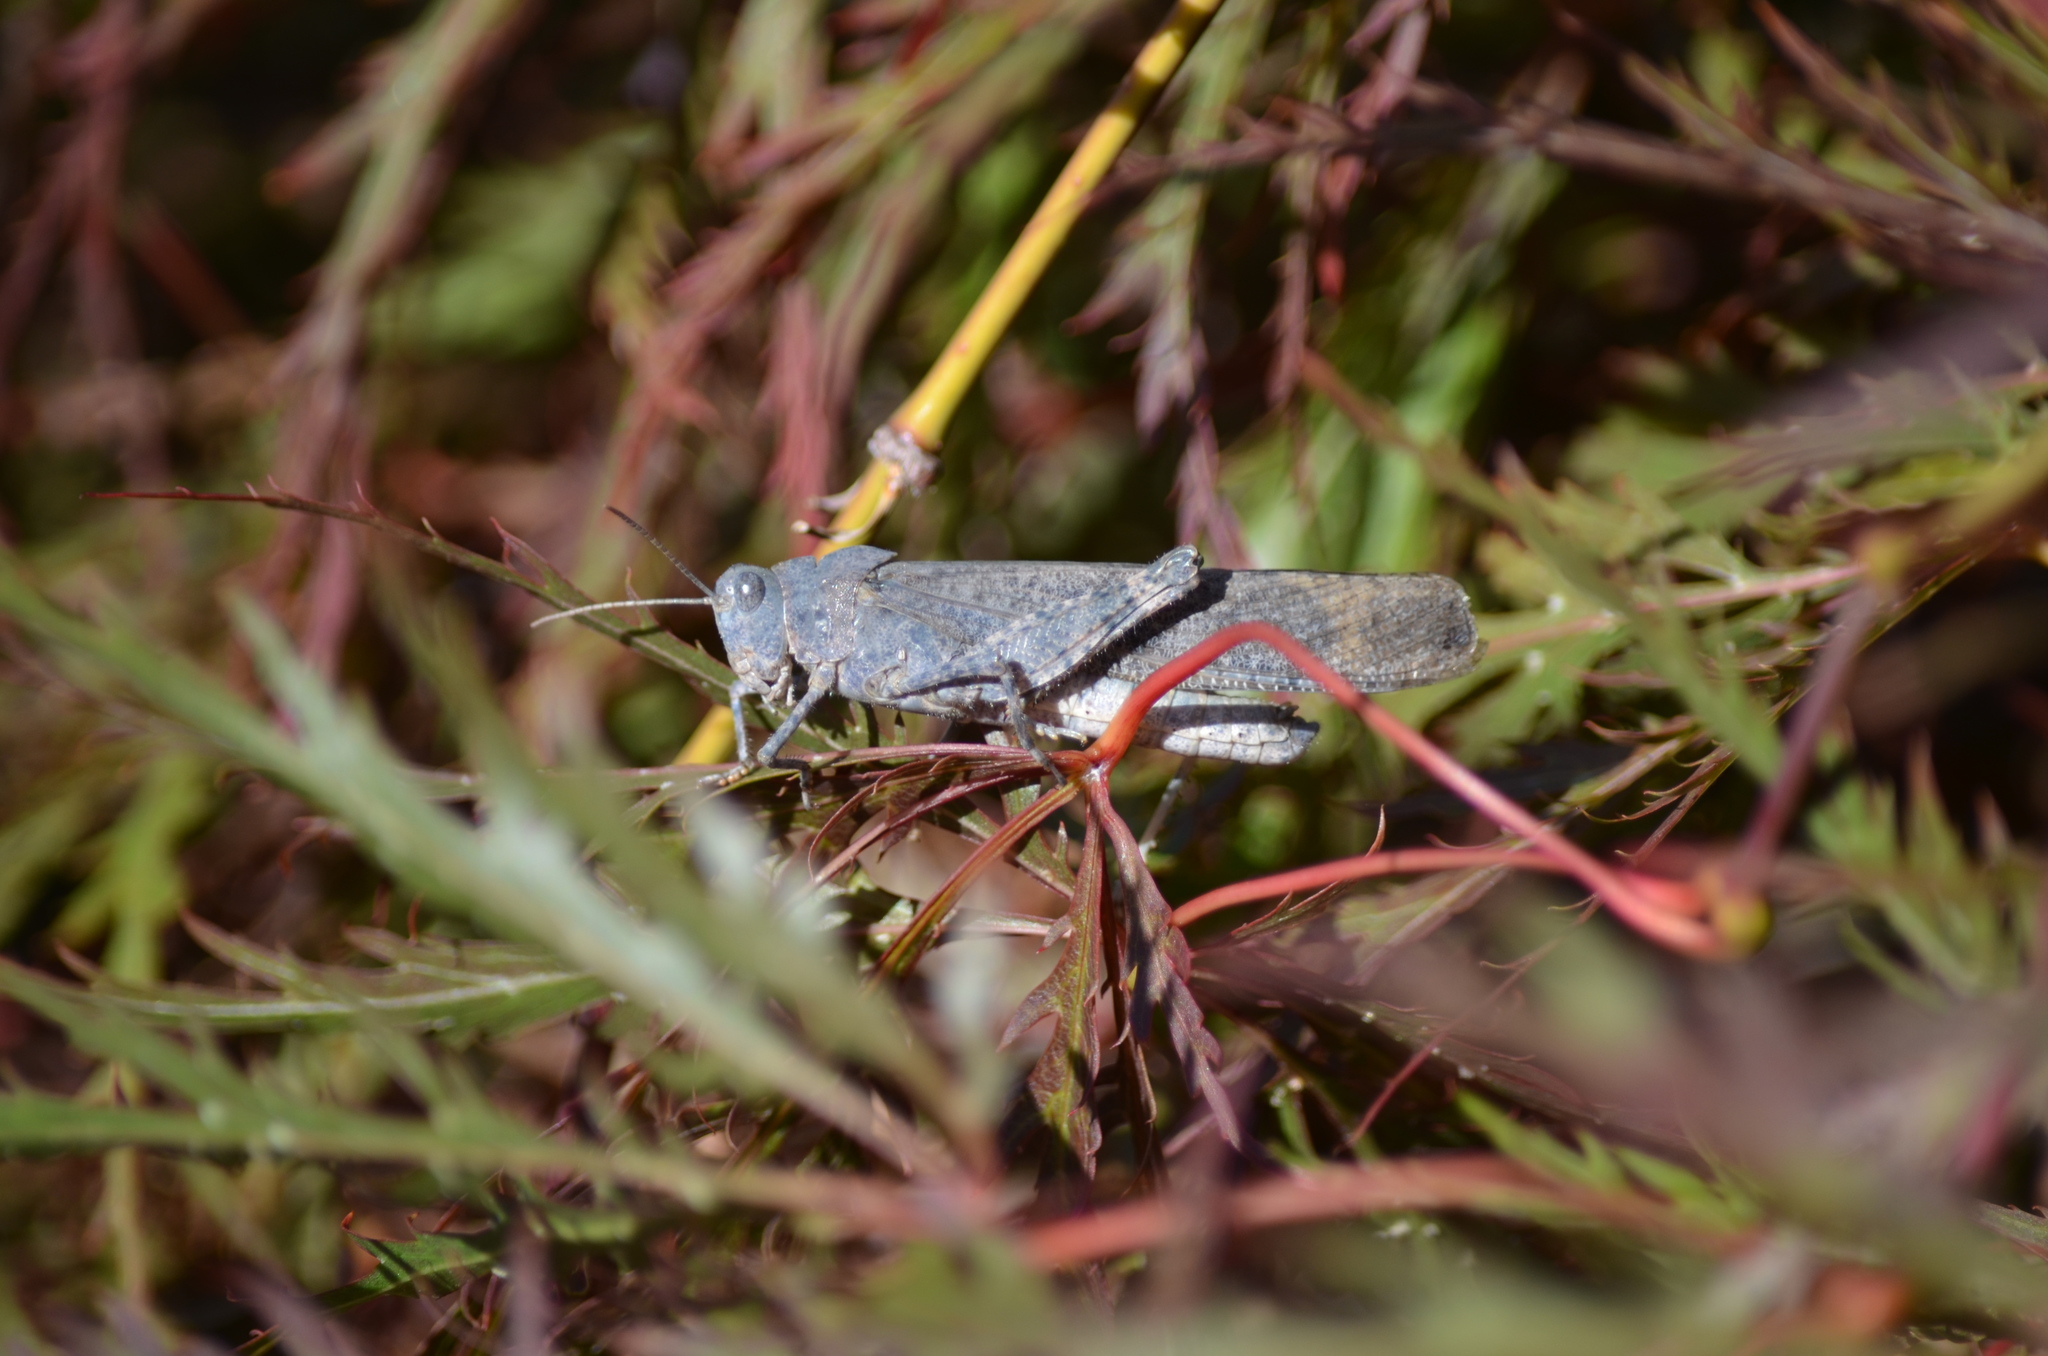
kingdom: Animalia
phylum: Arthropoda
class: Insecta
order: Orthoptera
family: Acrididae
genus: Dissosteira
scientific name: Dissosteira carolina
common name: Carolina grasshopper
